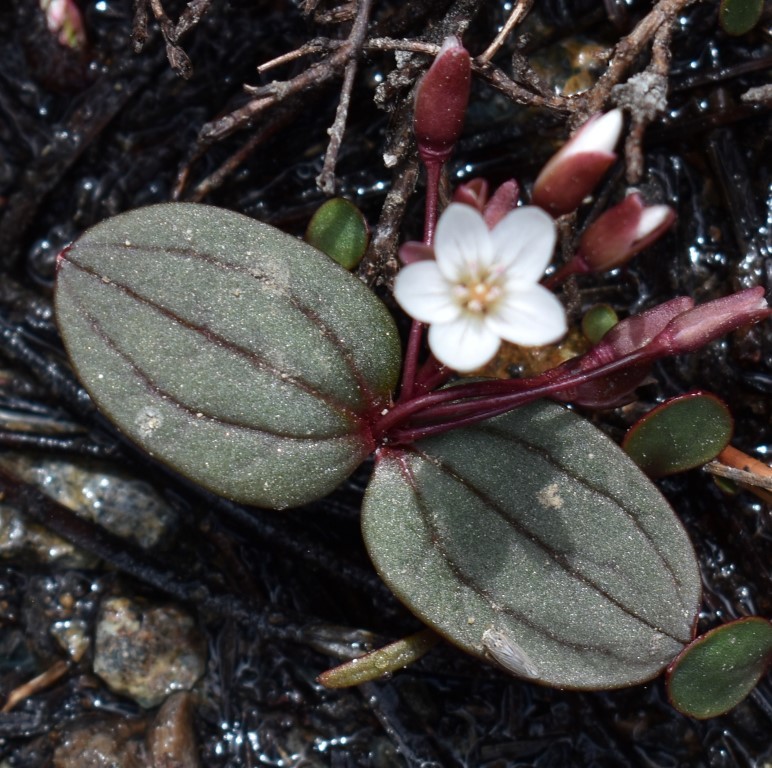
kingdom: Plantae
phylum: Tracheophyta
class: Magnoliopsida
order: Caryophyllales
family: Montiaceae
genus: Claytonia
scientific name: Claytonia obovata
